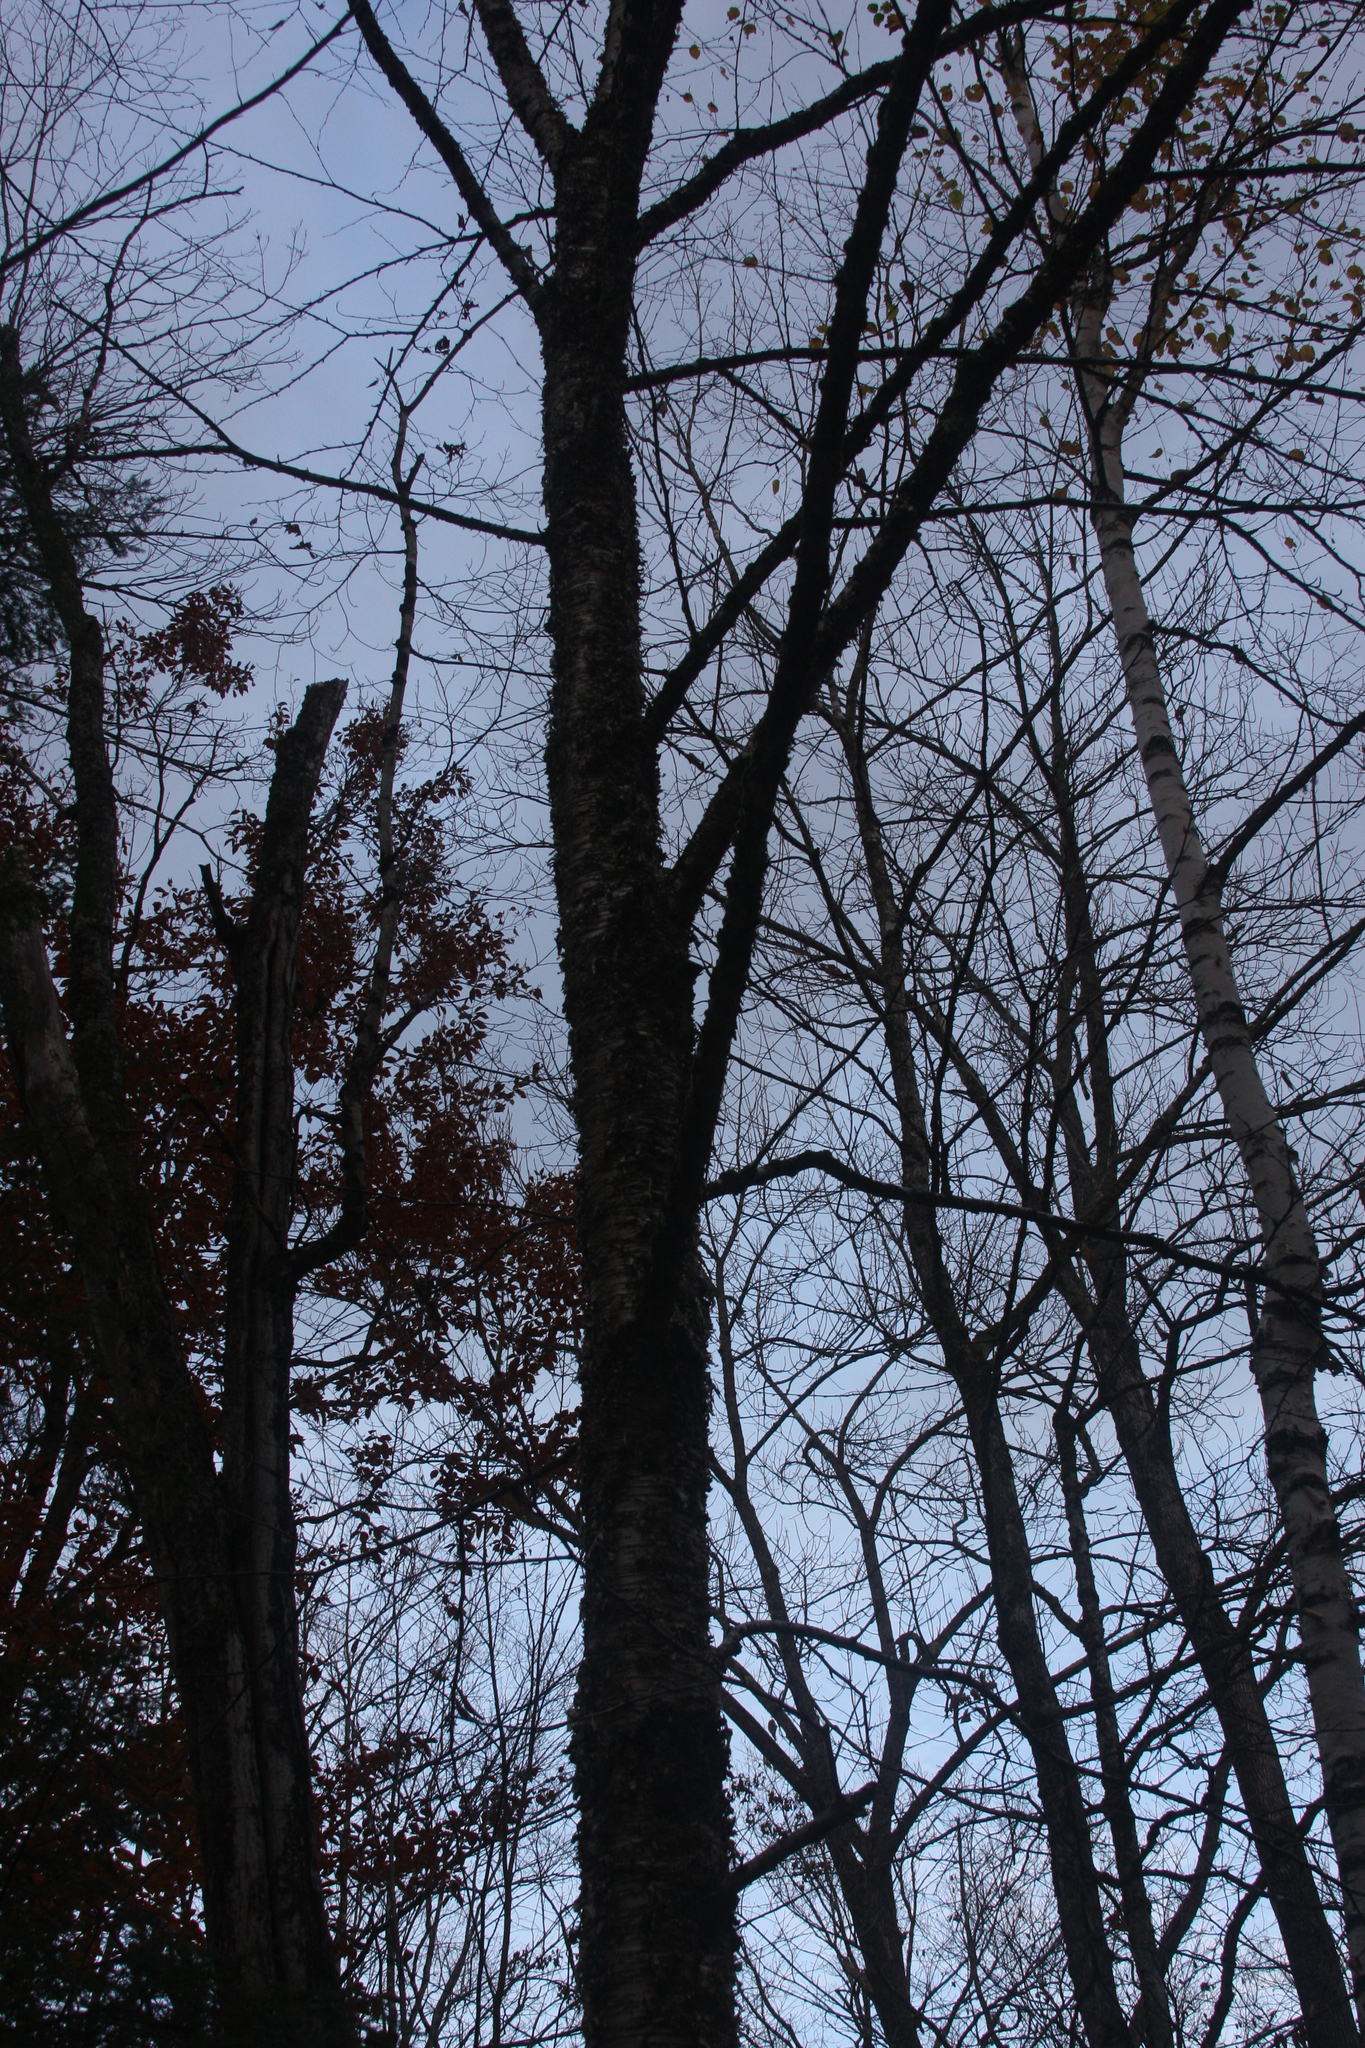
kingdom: Plantae
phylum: Tracheophyta
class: Magnoliopsida
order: Fagales
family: Betulaceae
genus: Betula
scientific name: Betula alleghaniensis
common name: Yellow birch
